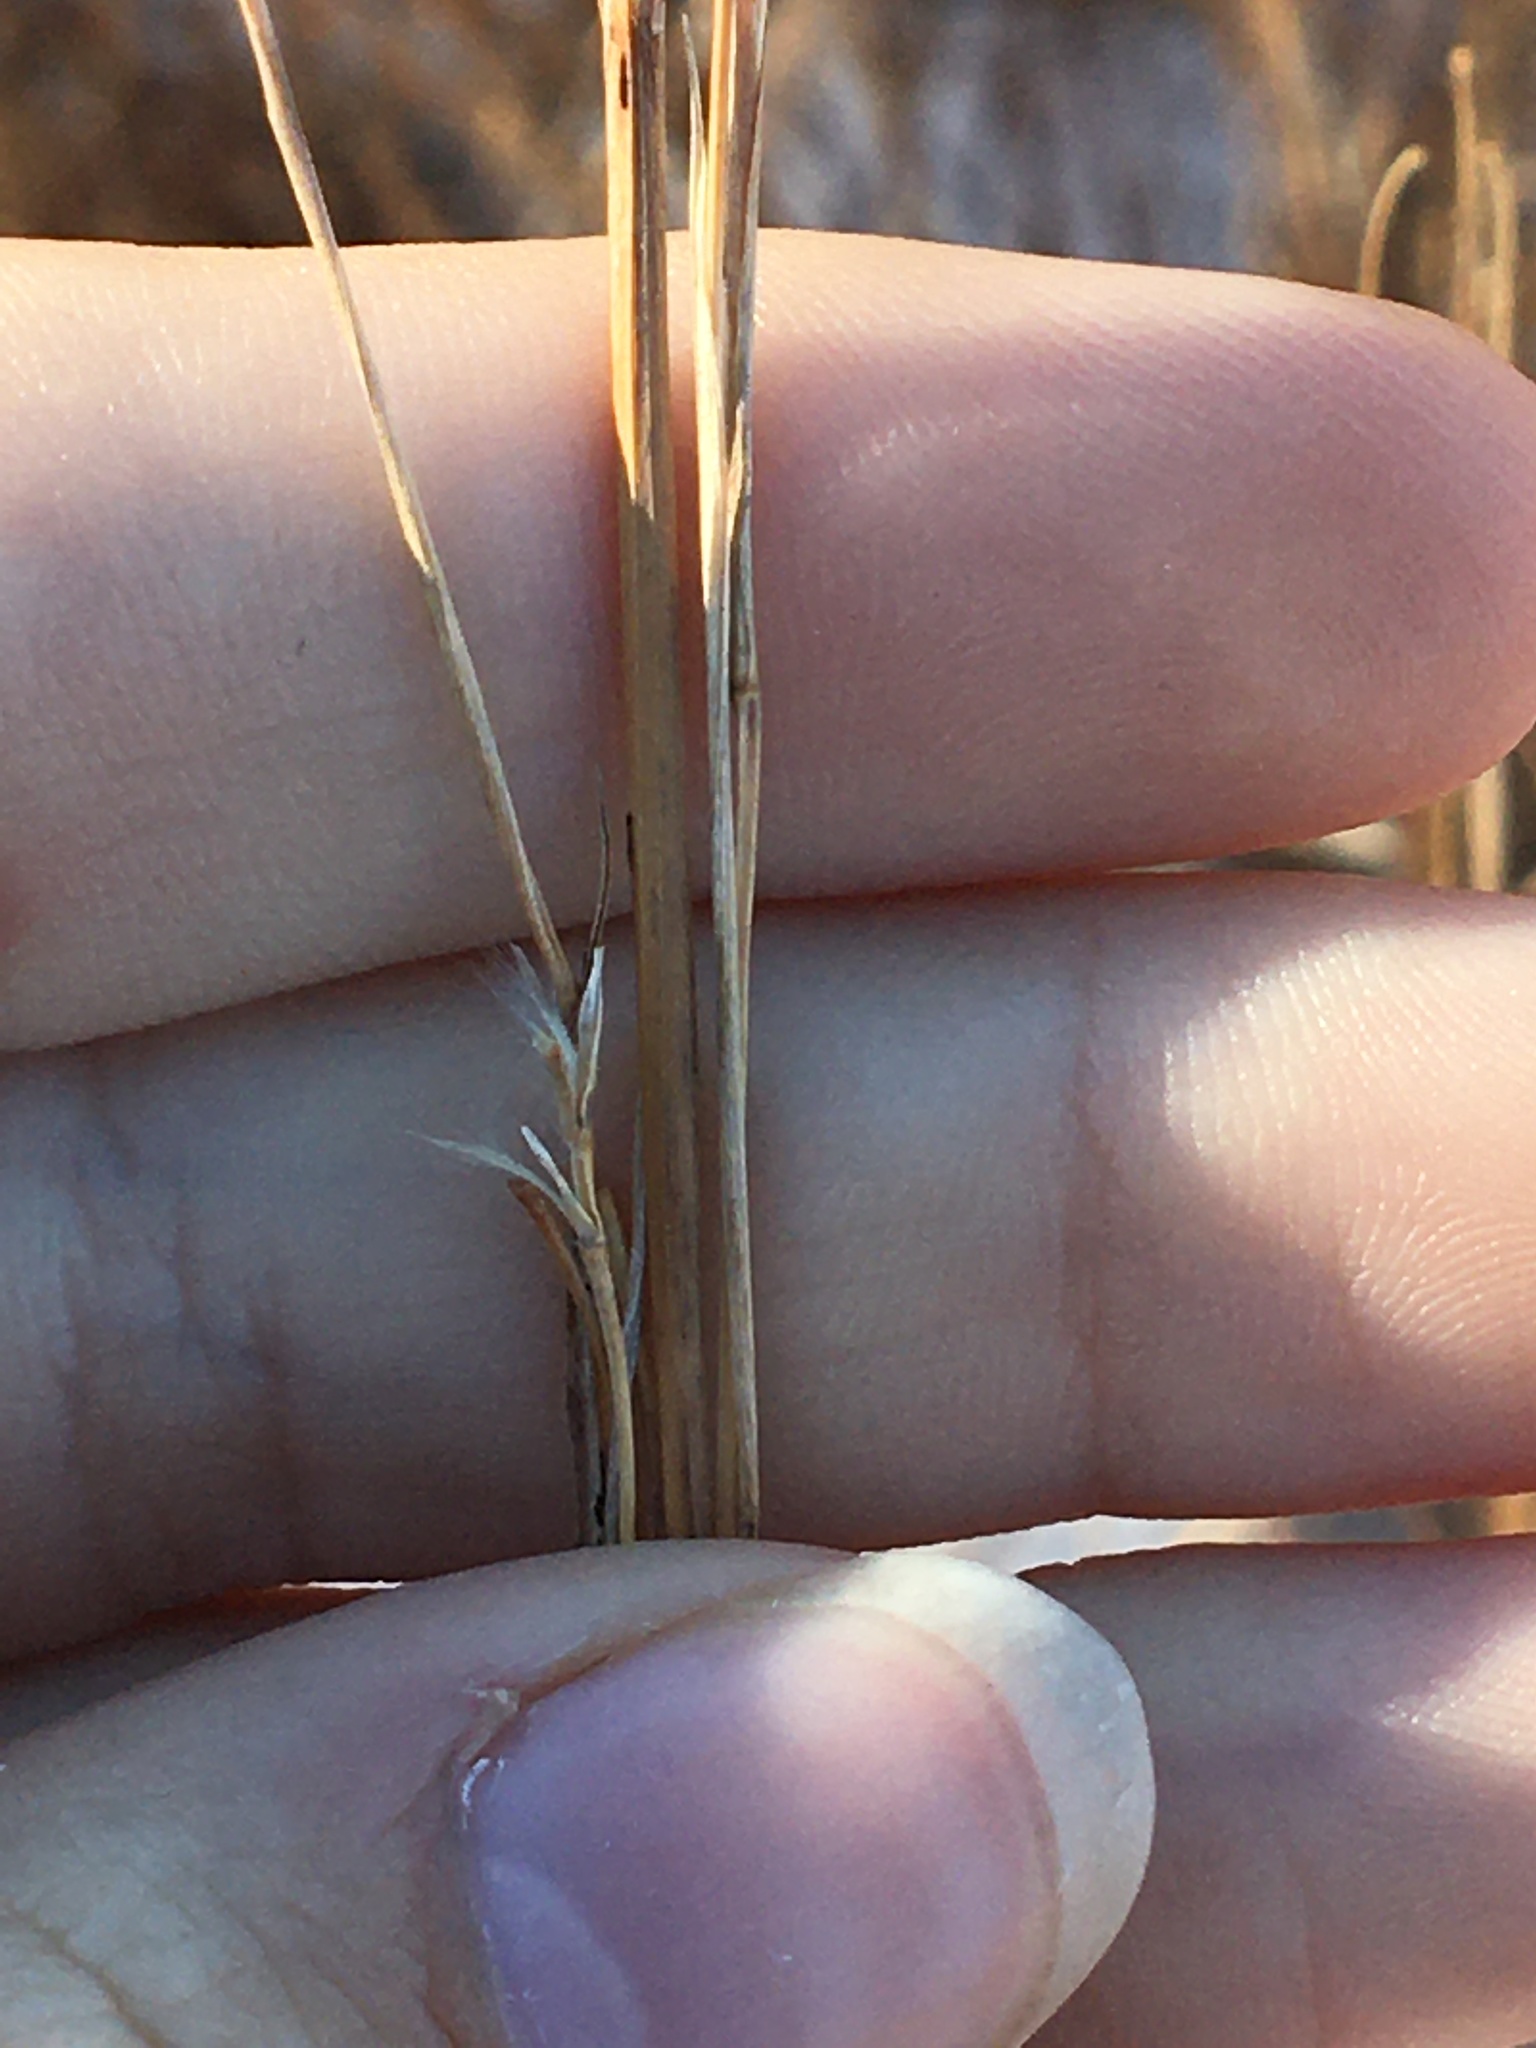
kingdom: Plantae
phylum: Tracheophyta
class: Liliopsida
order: Poales
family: Poaceae
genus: Schizachyrium
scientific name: Schizachyrium scoparium
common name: Little bluestem
